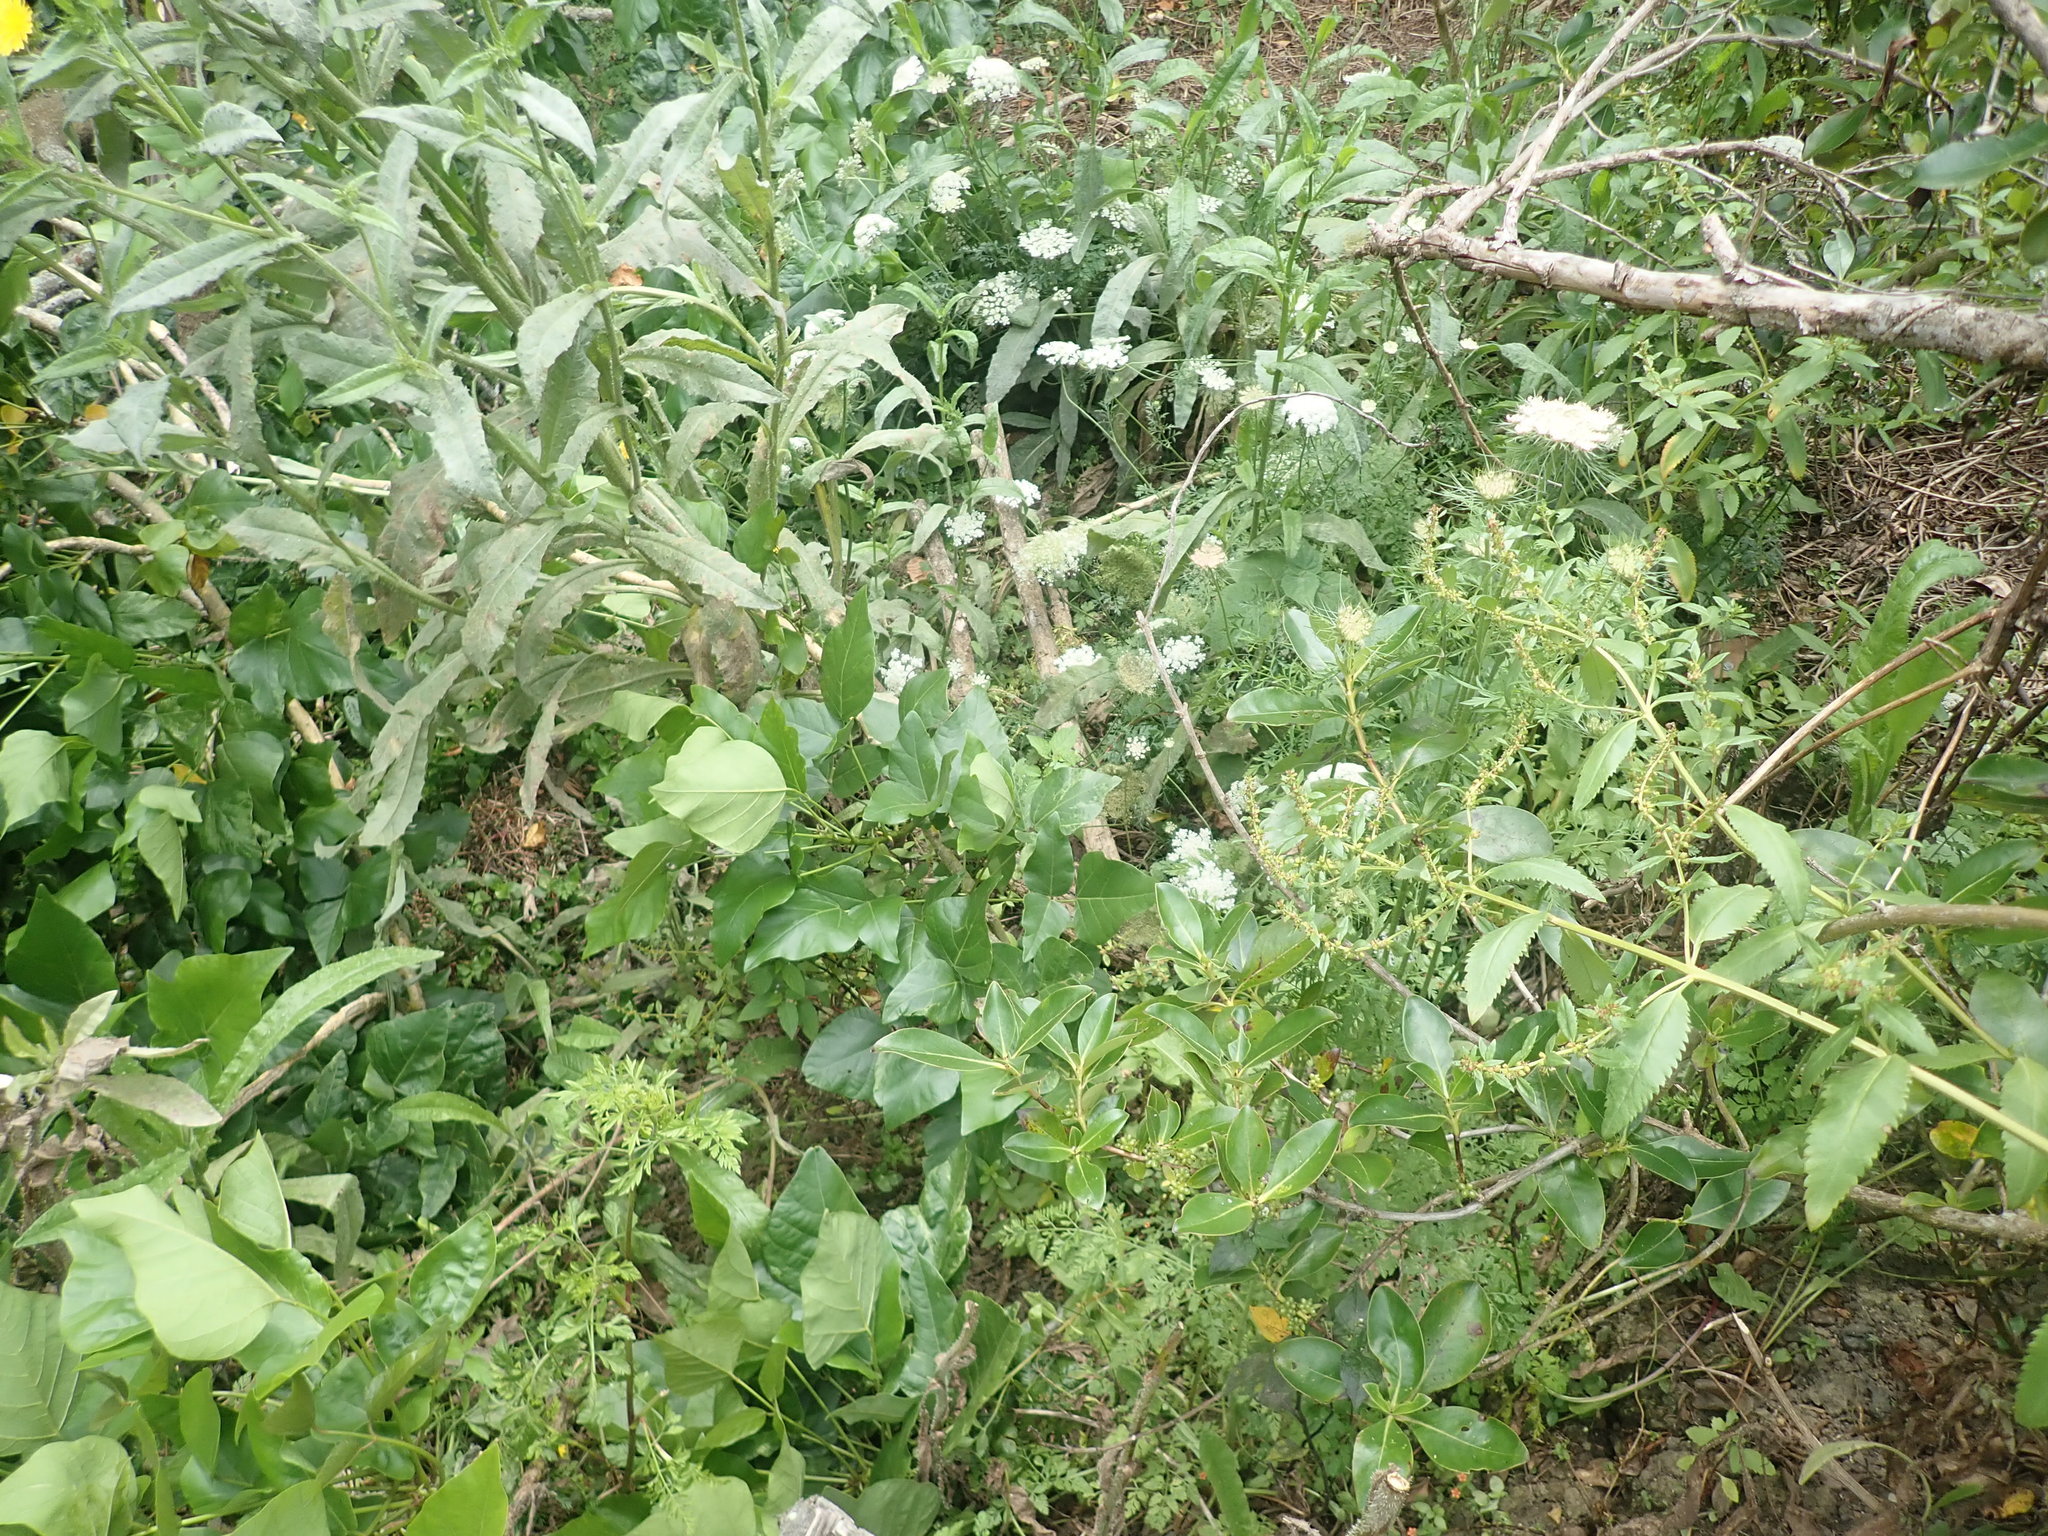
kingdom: Plantae
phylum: Tracheophyta
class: Magnoliopsida
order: Gentianales
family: Rubiaceae
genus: Coprosma
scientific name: Coprosma robusta
